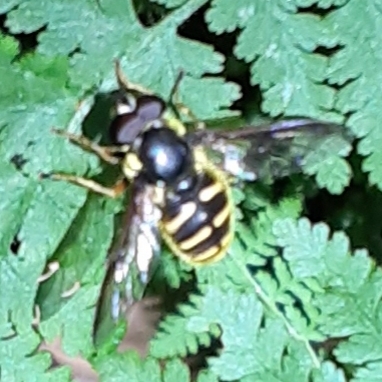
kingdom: Animalia
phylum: Arthropoda
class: Insecta
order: Diptera
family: Syrphidae
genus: Sericomyia
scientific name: Sericomyia chrysotoxoides
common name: Oblique-banded pond fly
